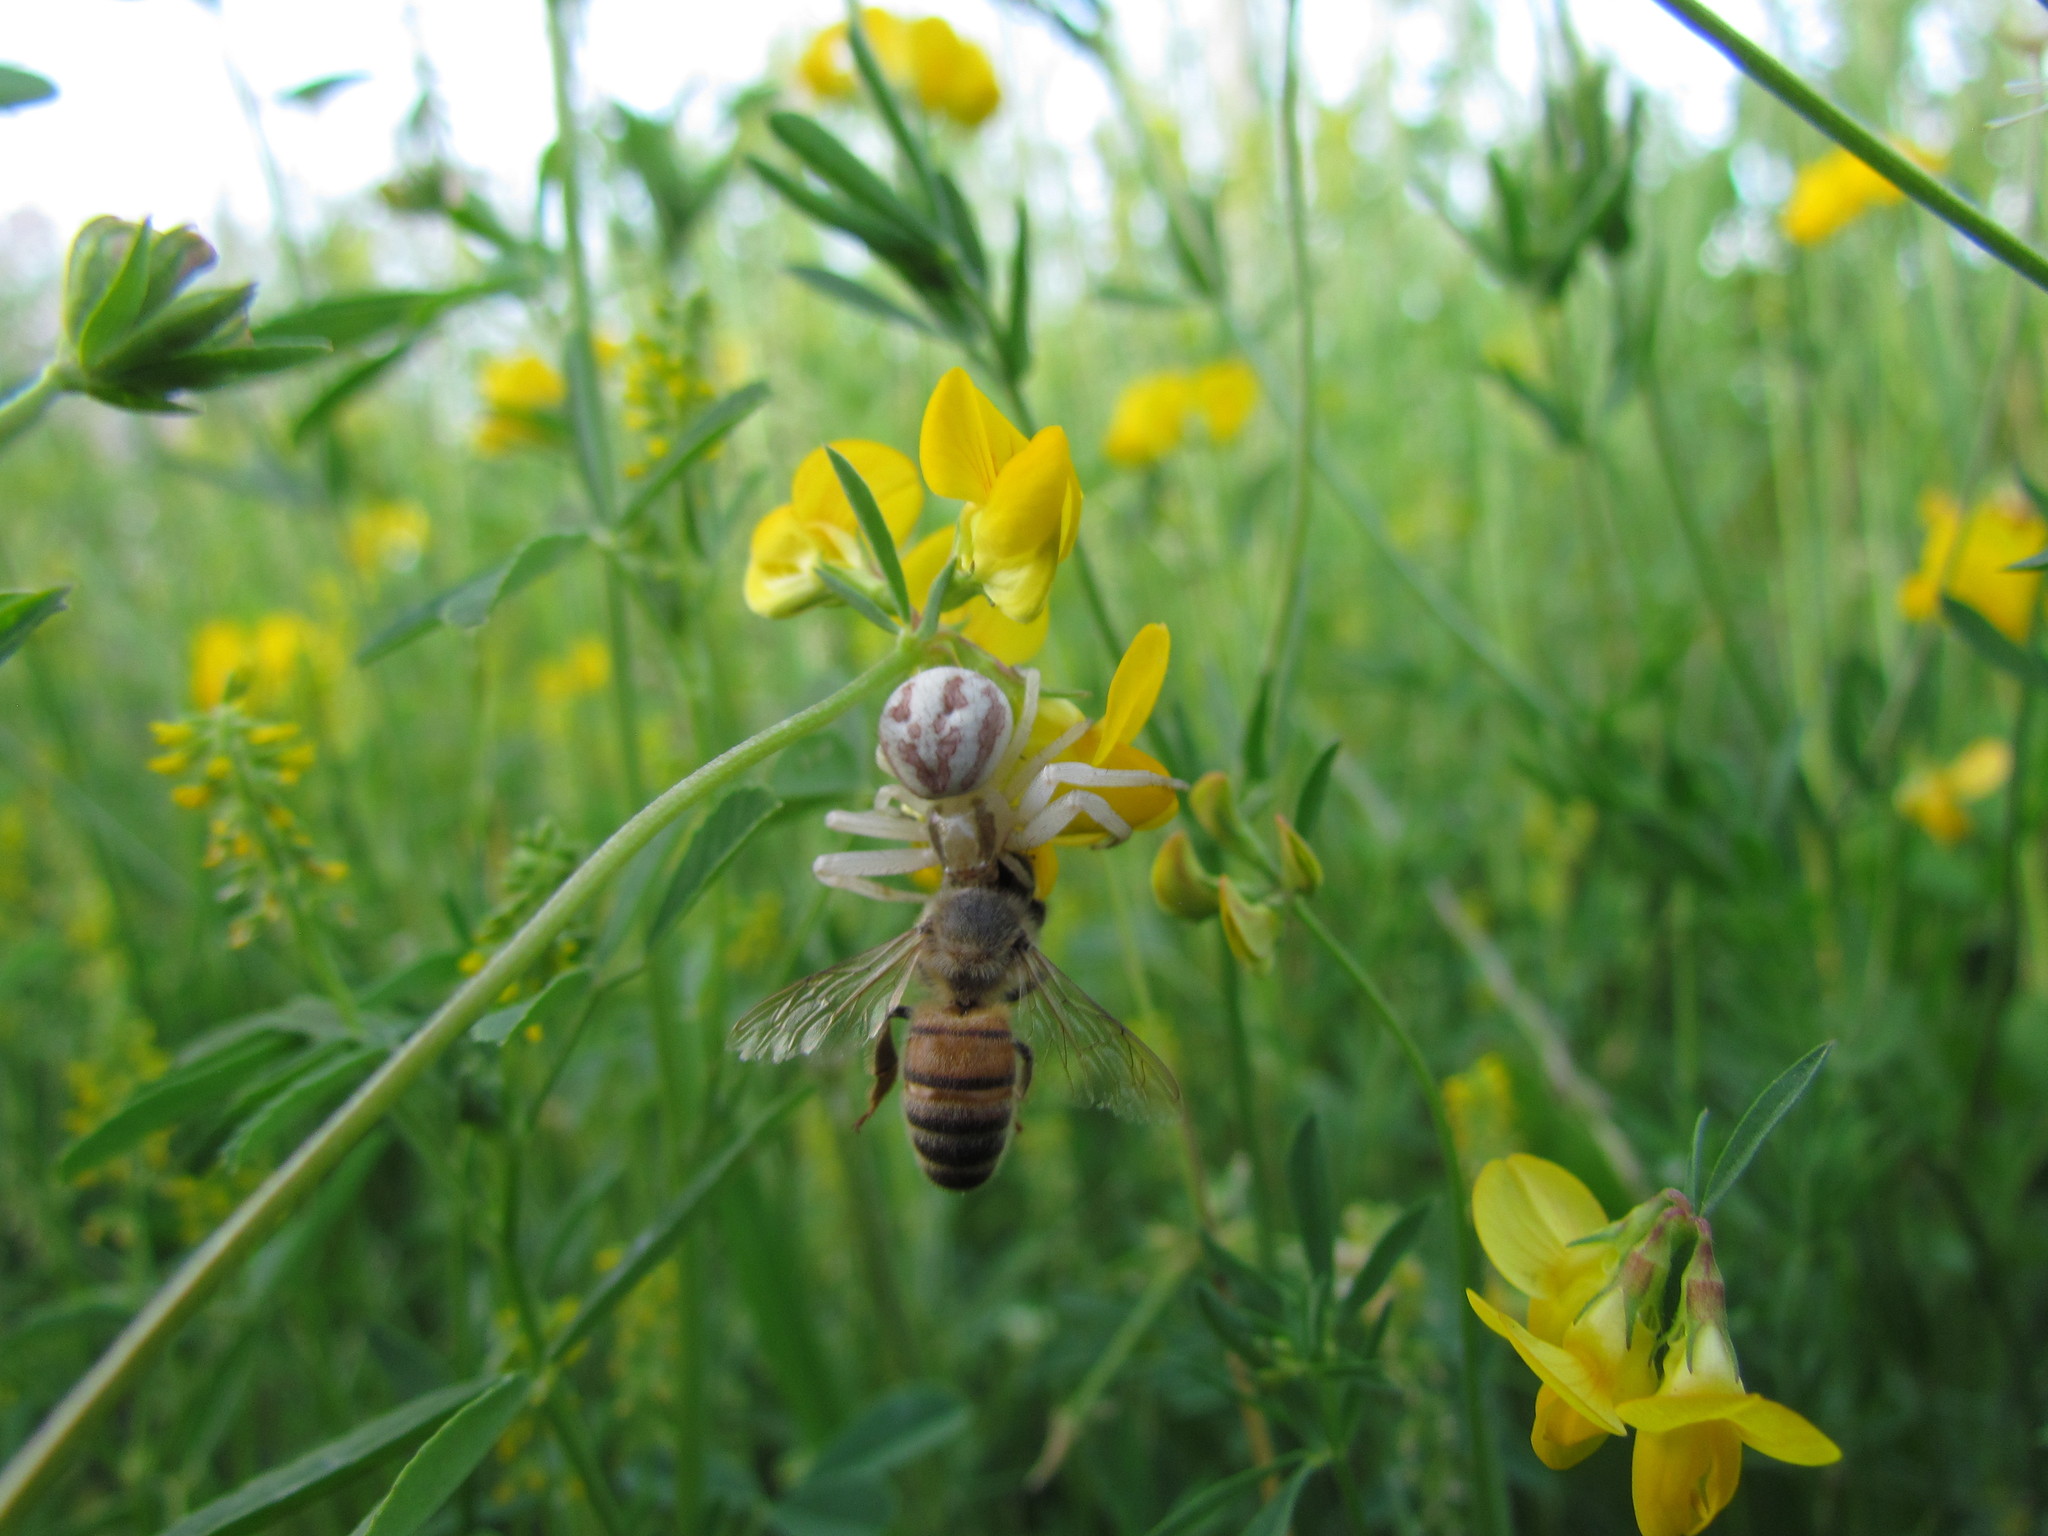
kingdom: Animalia
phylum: Arthropoda
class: Arachnida
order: Araneae
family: Thomisidae
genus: Misumenops
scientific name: Misumenops
